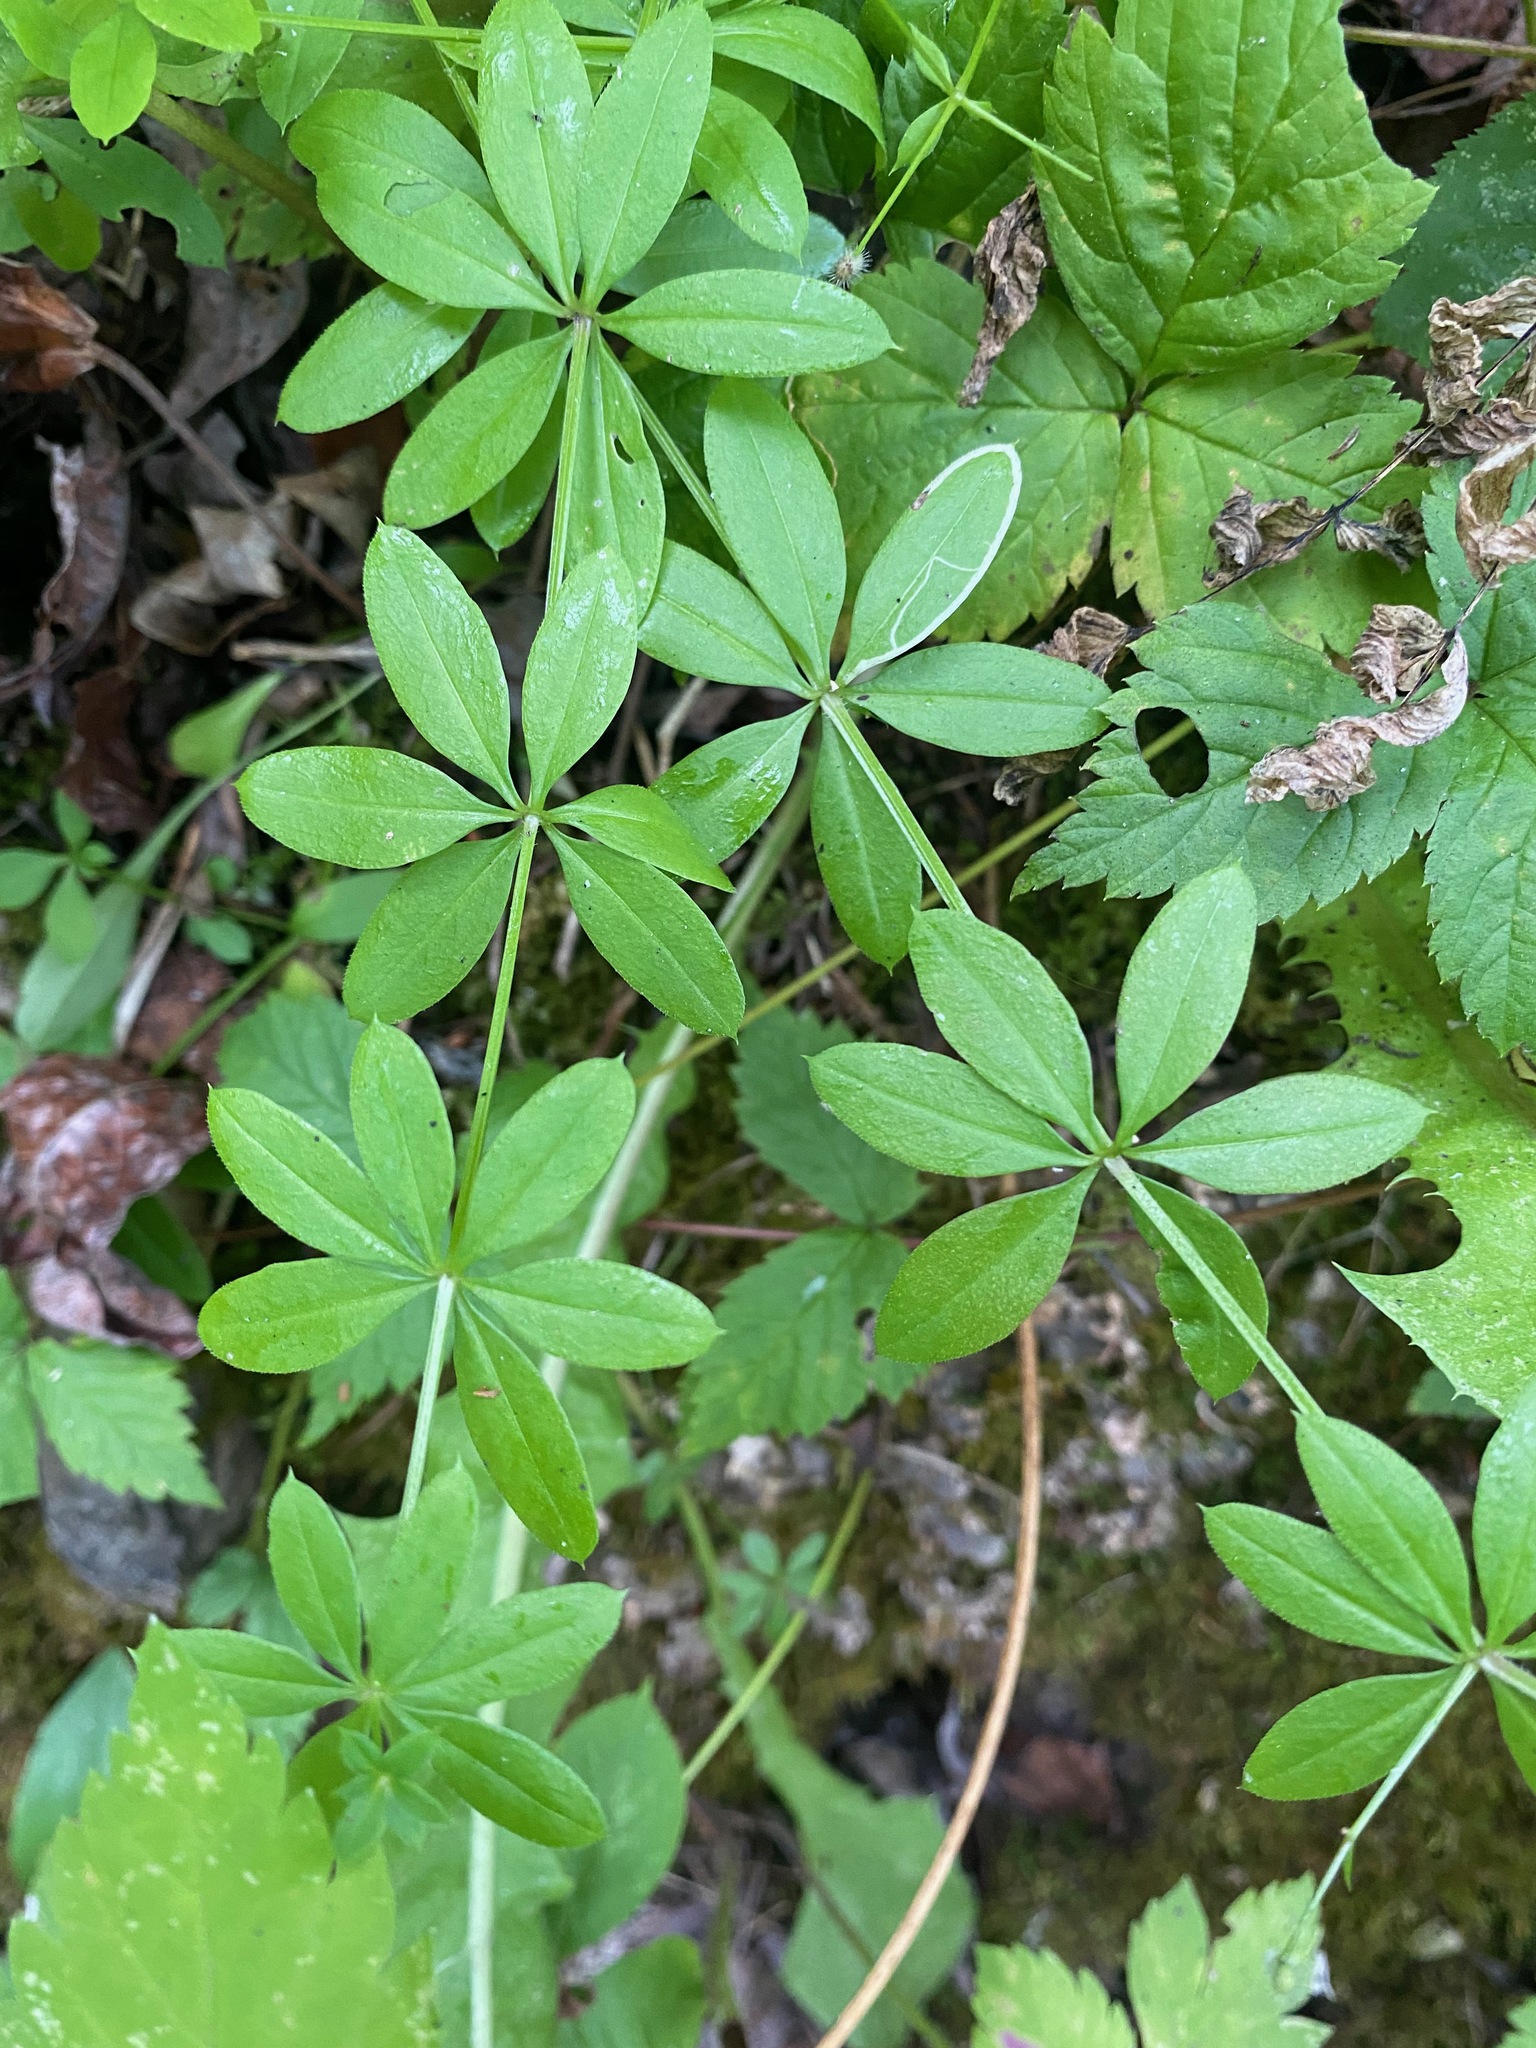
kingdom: Plantae
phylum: Tracheophyta
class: Magnoliopsida
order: Gentianales
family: Rubiaceae
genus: Galium
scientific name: Galium triflorum
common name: Fragrant bedstraw
